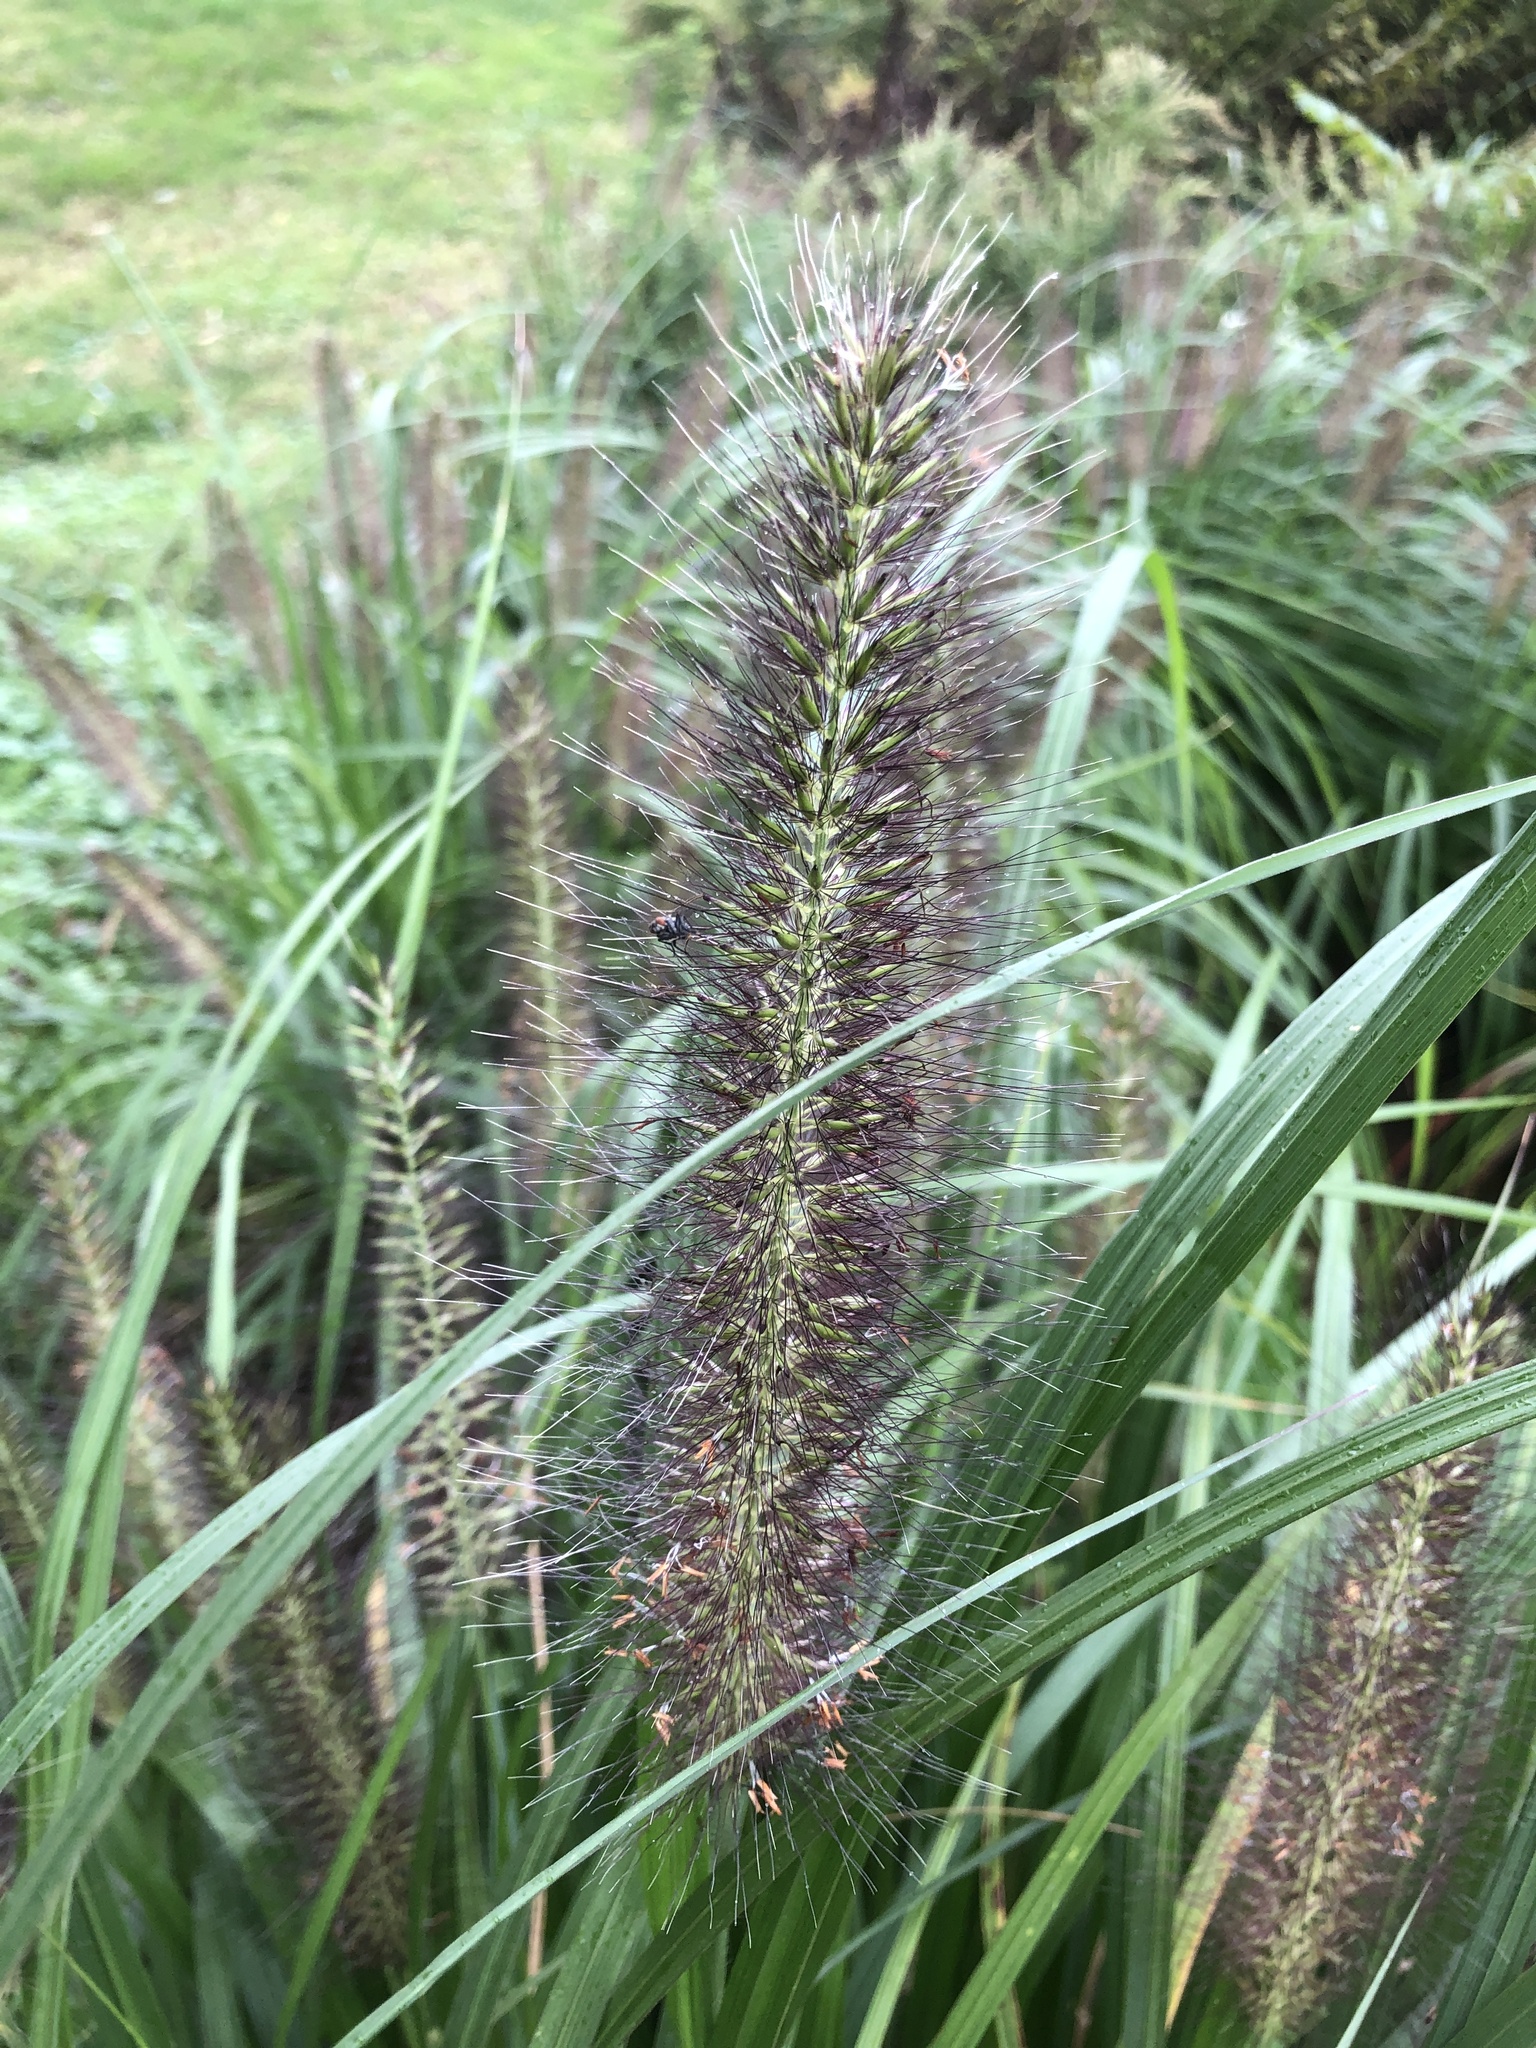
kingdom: Plantae
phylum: Tracheophyta
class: Liliopsida
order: Poales
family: Poaceae
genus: Cenchrus
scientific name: Cenchrus alopecuroides
